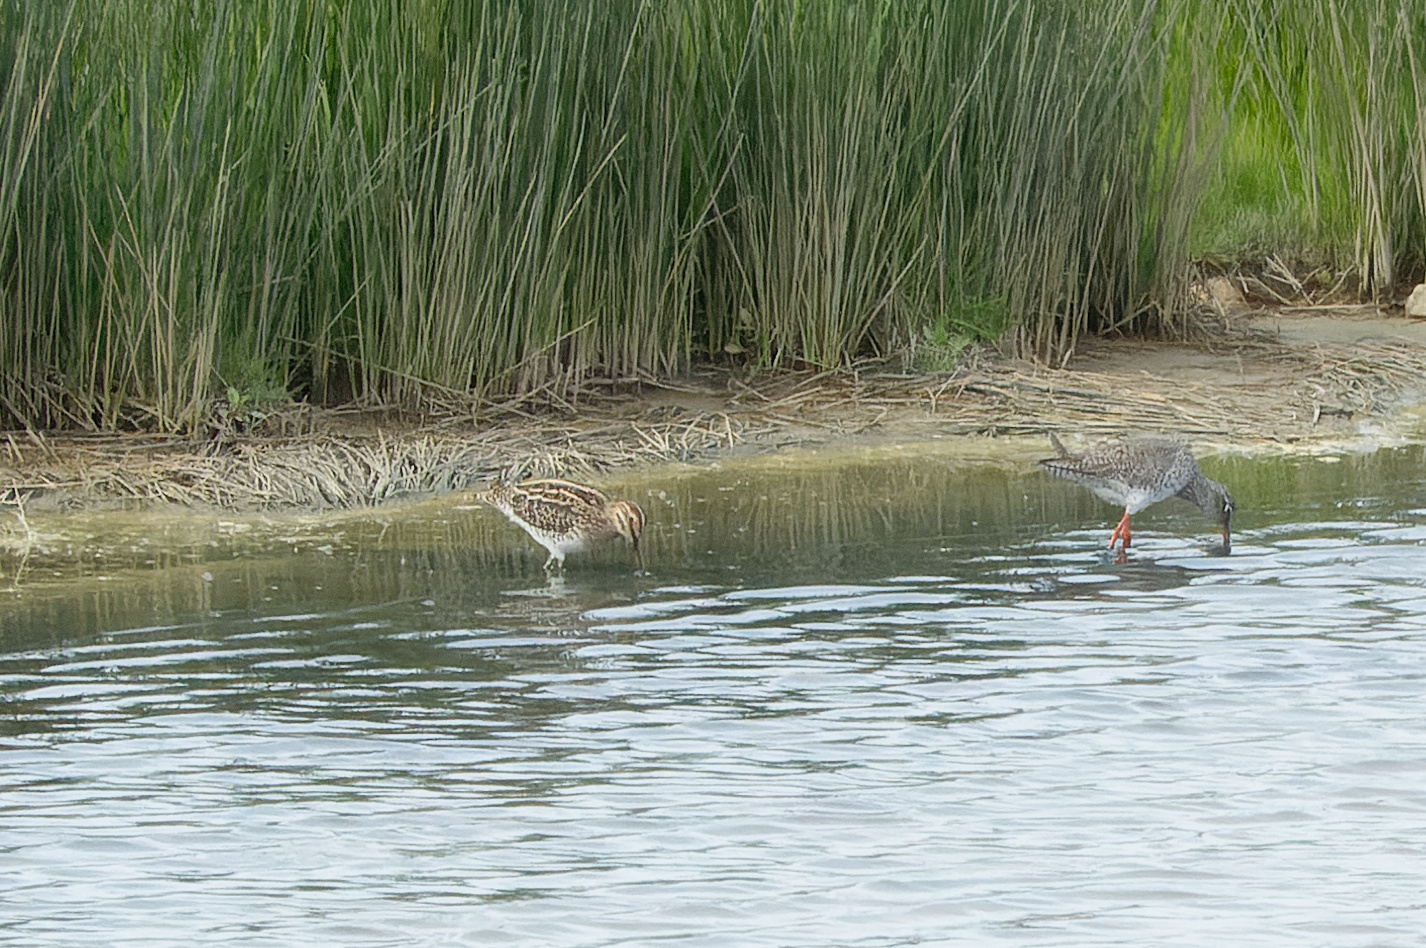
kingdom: Animalia
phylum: Chordata
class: Aves
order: Charadriiformes
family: Scolopacidae
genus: Gallinago
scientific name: Gallinago gallinago
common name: Common snipe
